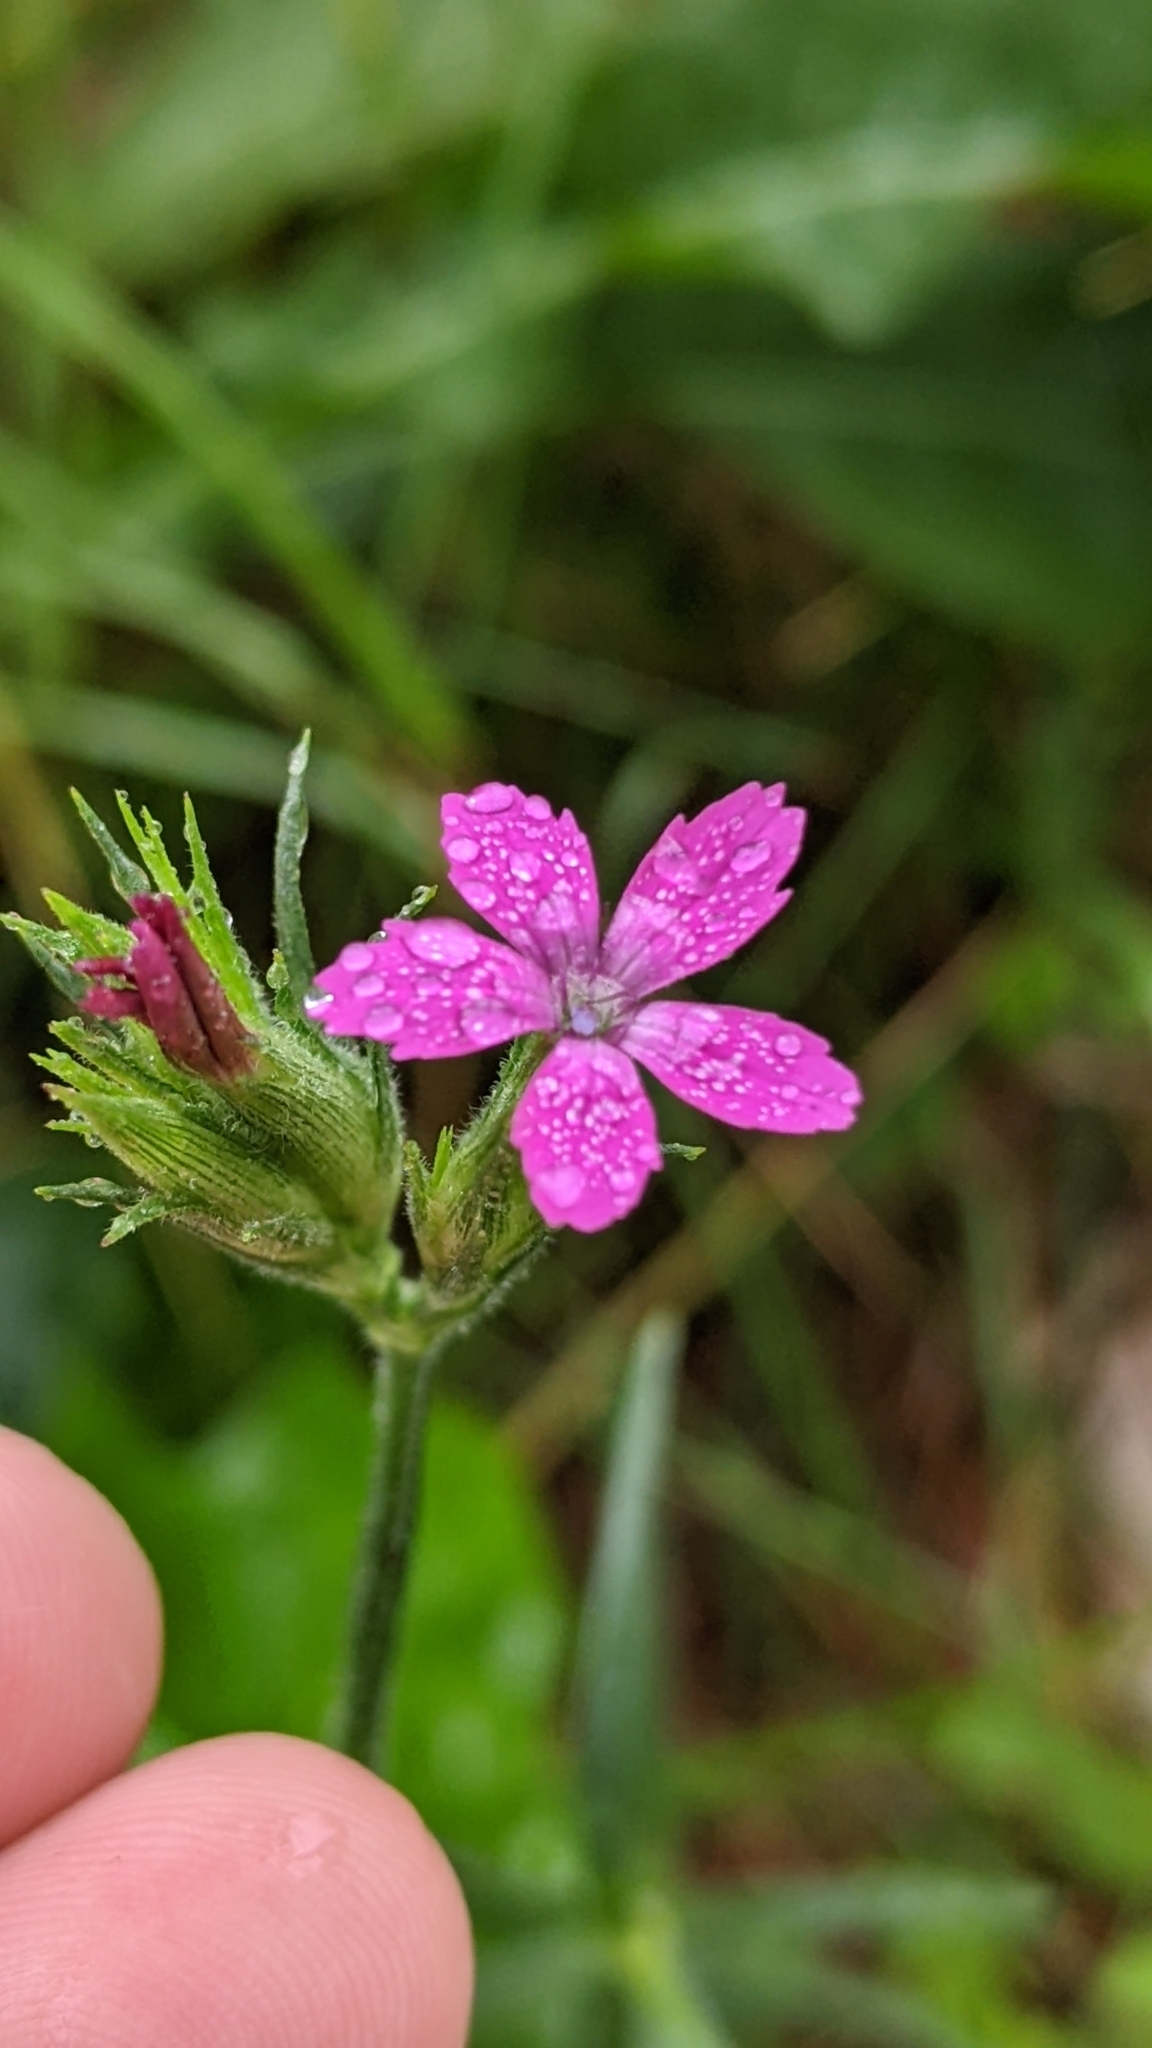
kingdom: Plantae
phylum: Tracheophyta
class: Magnoliopsida
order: Caryophyllales
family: Caryophyllaceae
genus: Dianthus
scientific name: Dianthus armeria
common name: Deptford pink
